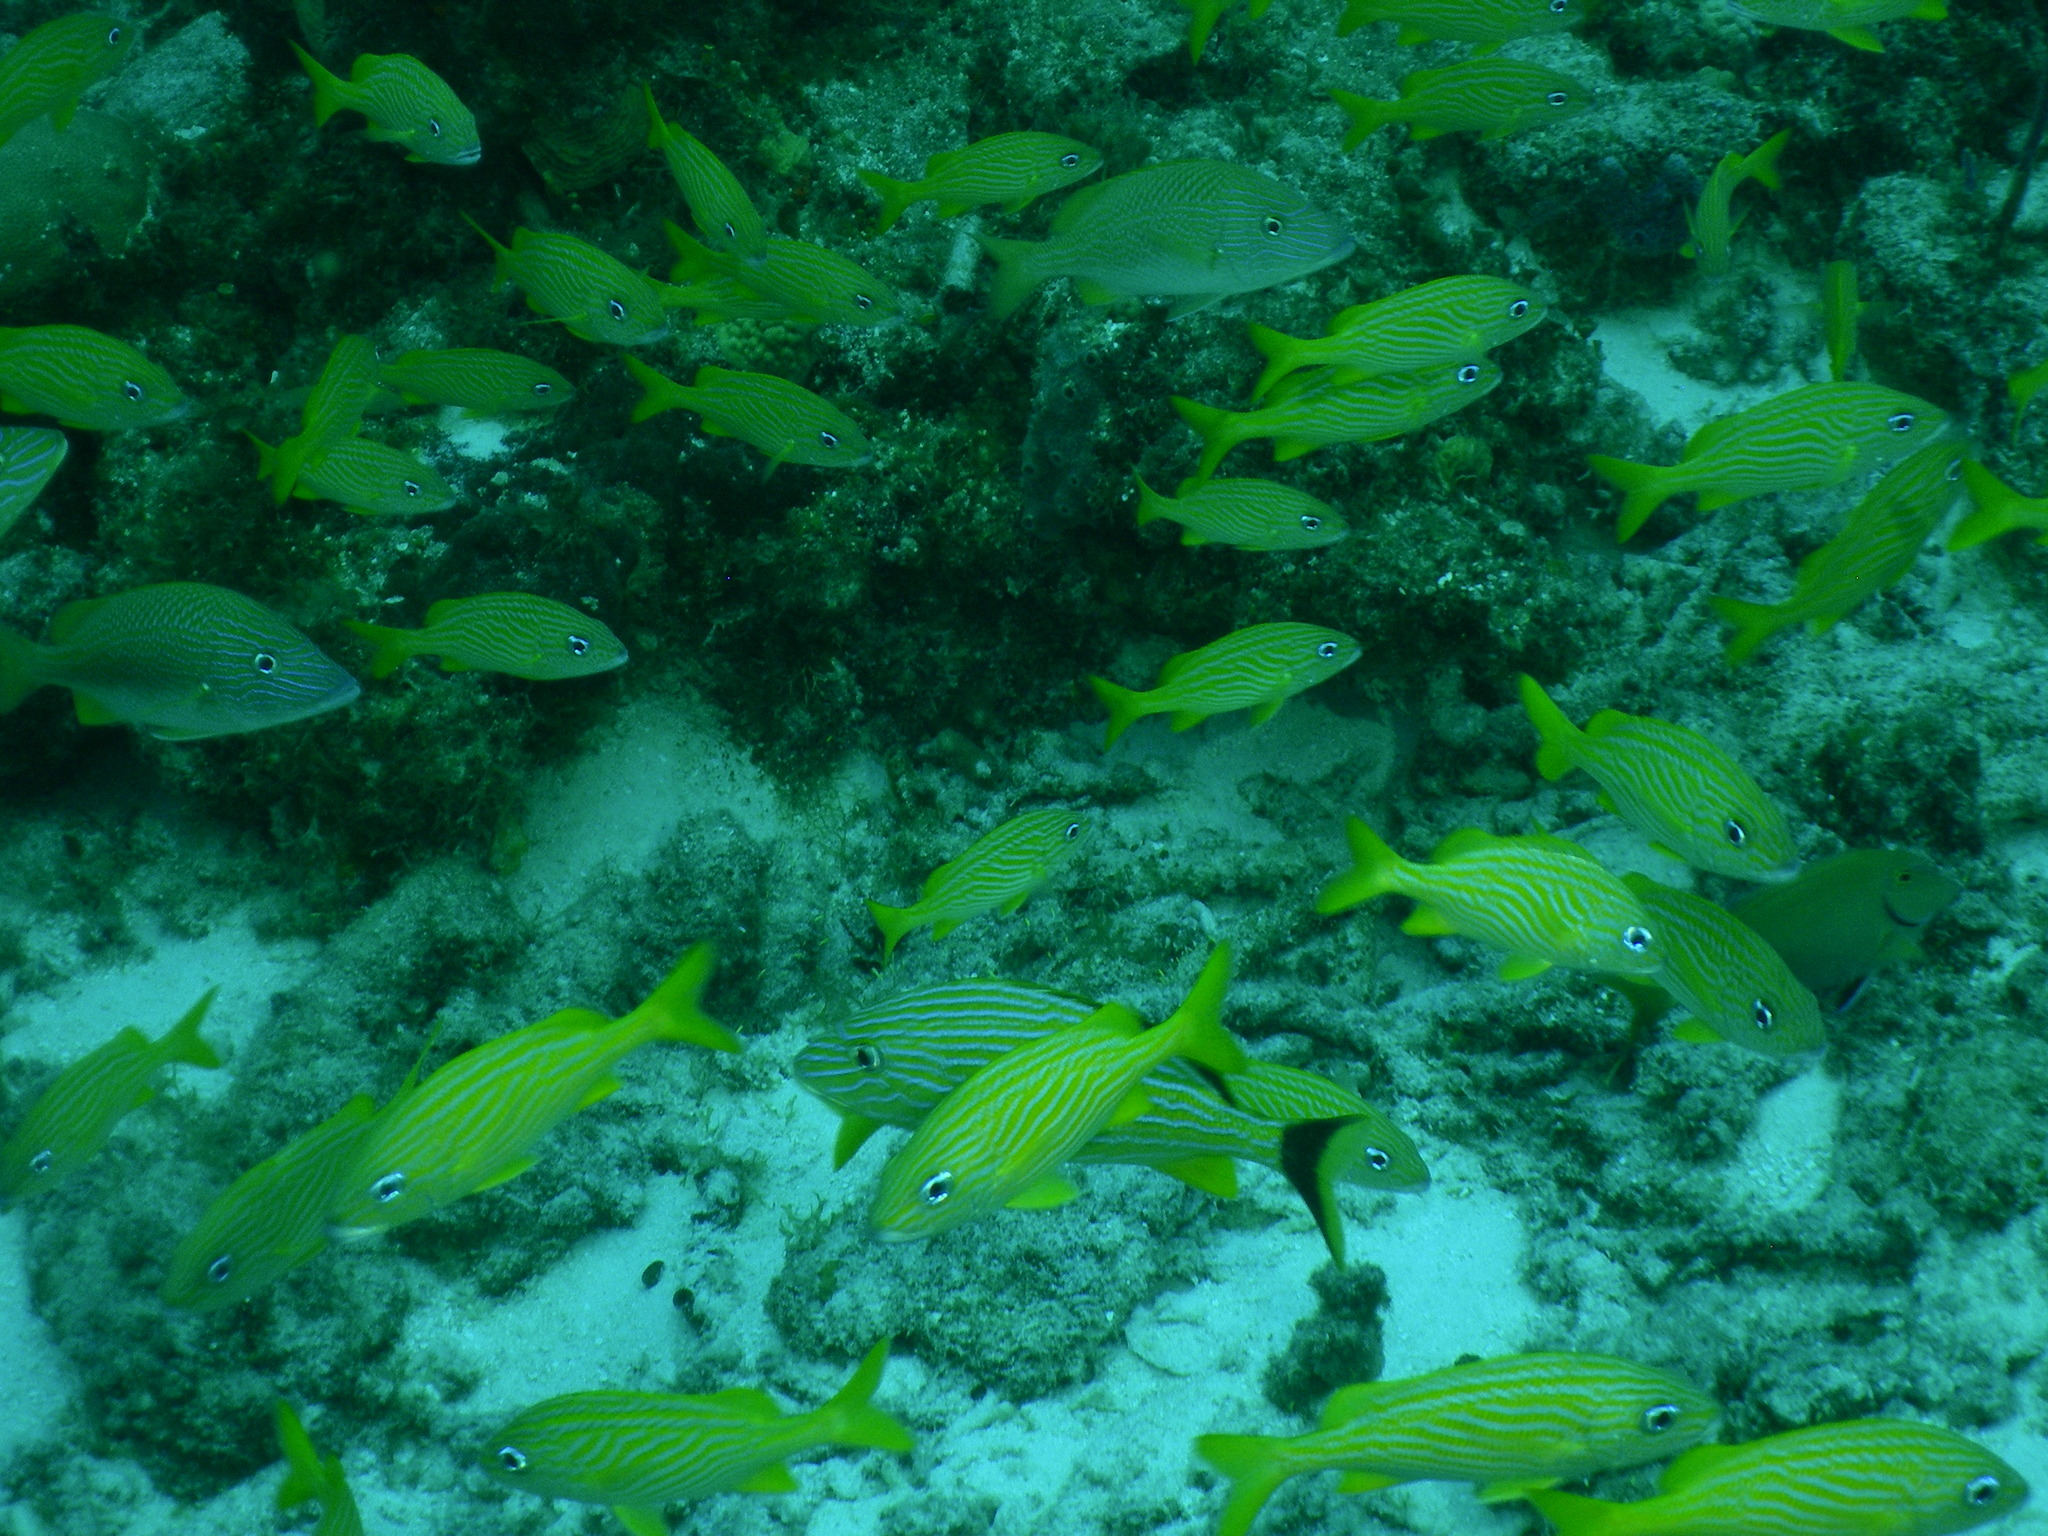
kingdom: Animalia
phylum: Chordata
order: Perciformes
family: Haemulidae
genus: Haemulon
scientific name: Haemulon flavolineatum
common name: French grunt
